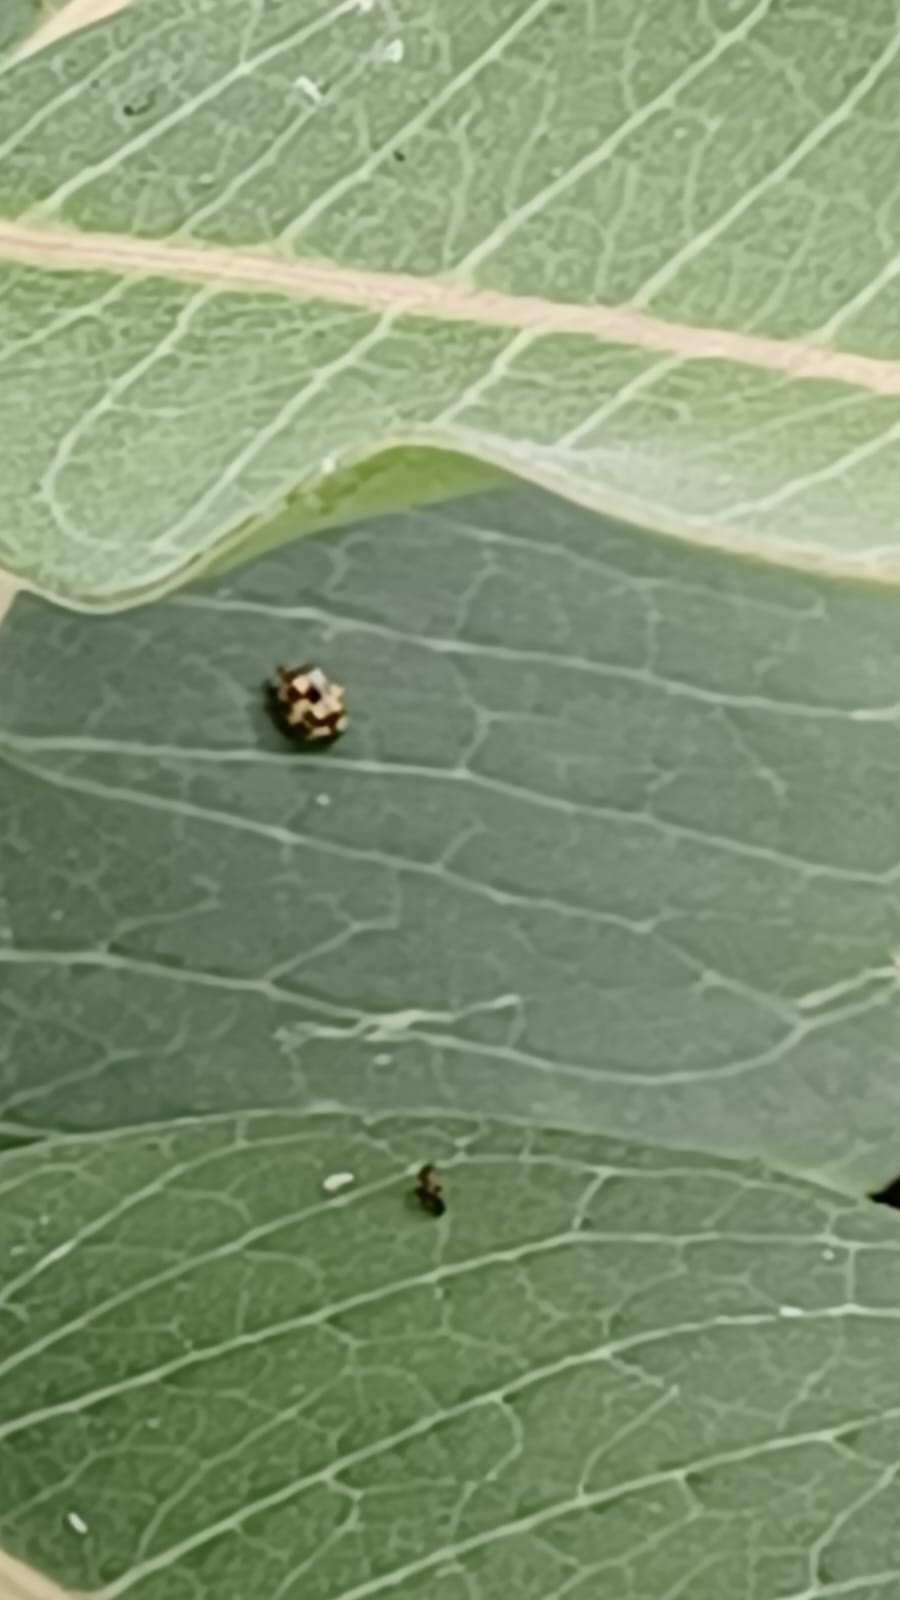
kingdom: Animalia
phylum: Arthropoda
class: Insecta
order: Coleoptera
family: Coccinellidae
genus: Propylaea
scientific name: Propylaea quatuordecimpunctata
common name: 14-spotted ladybird beetle
